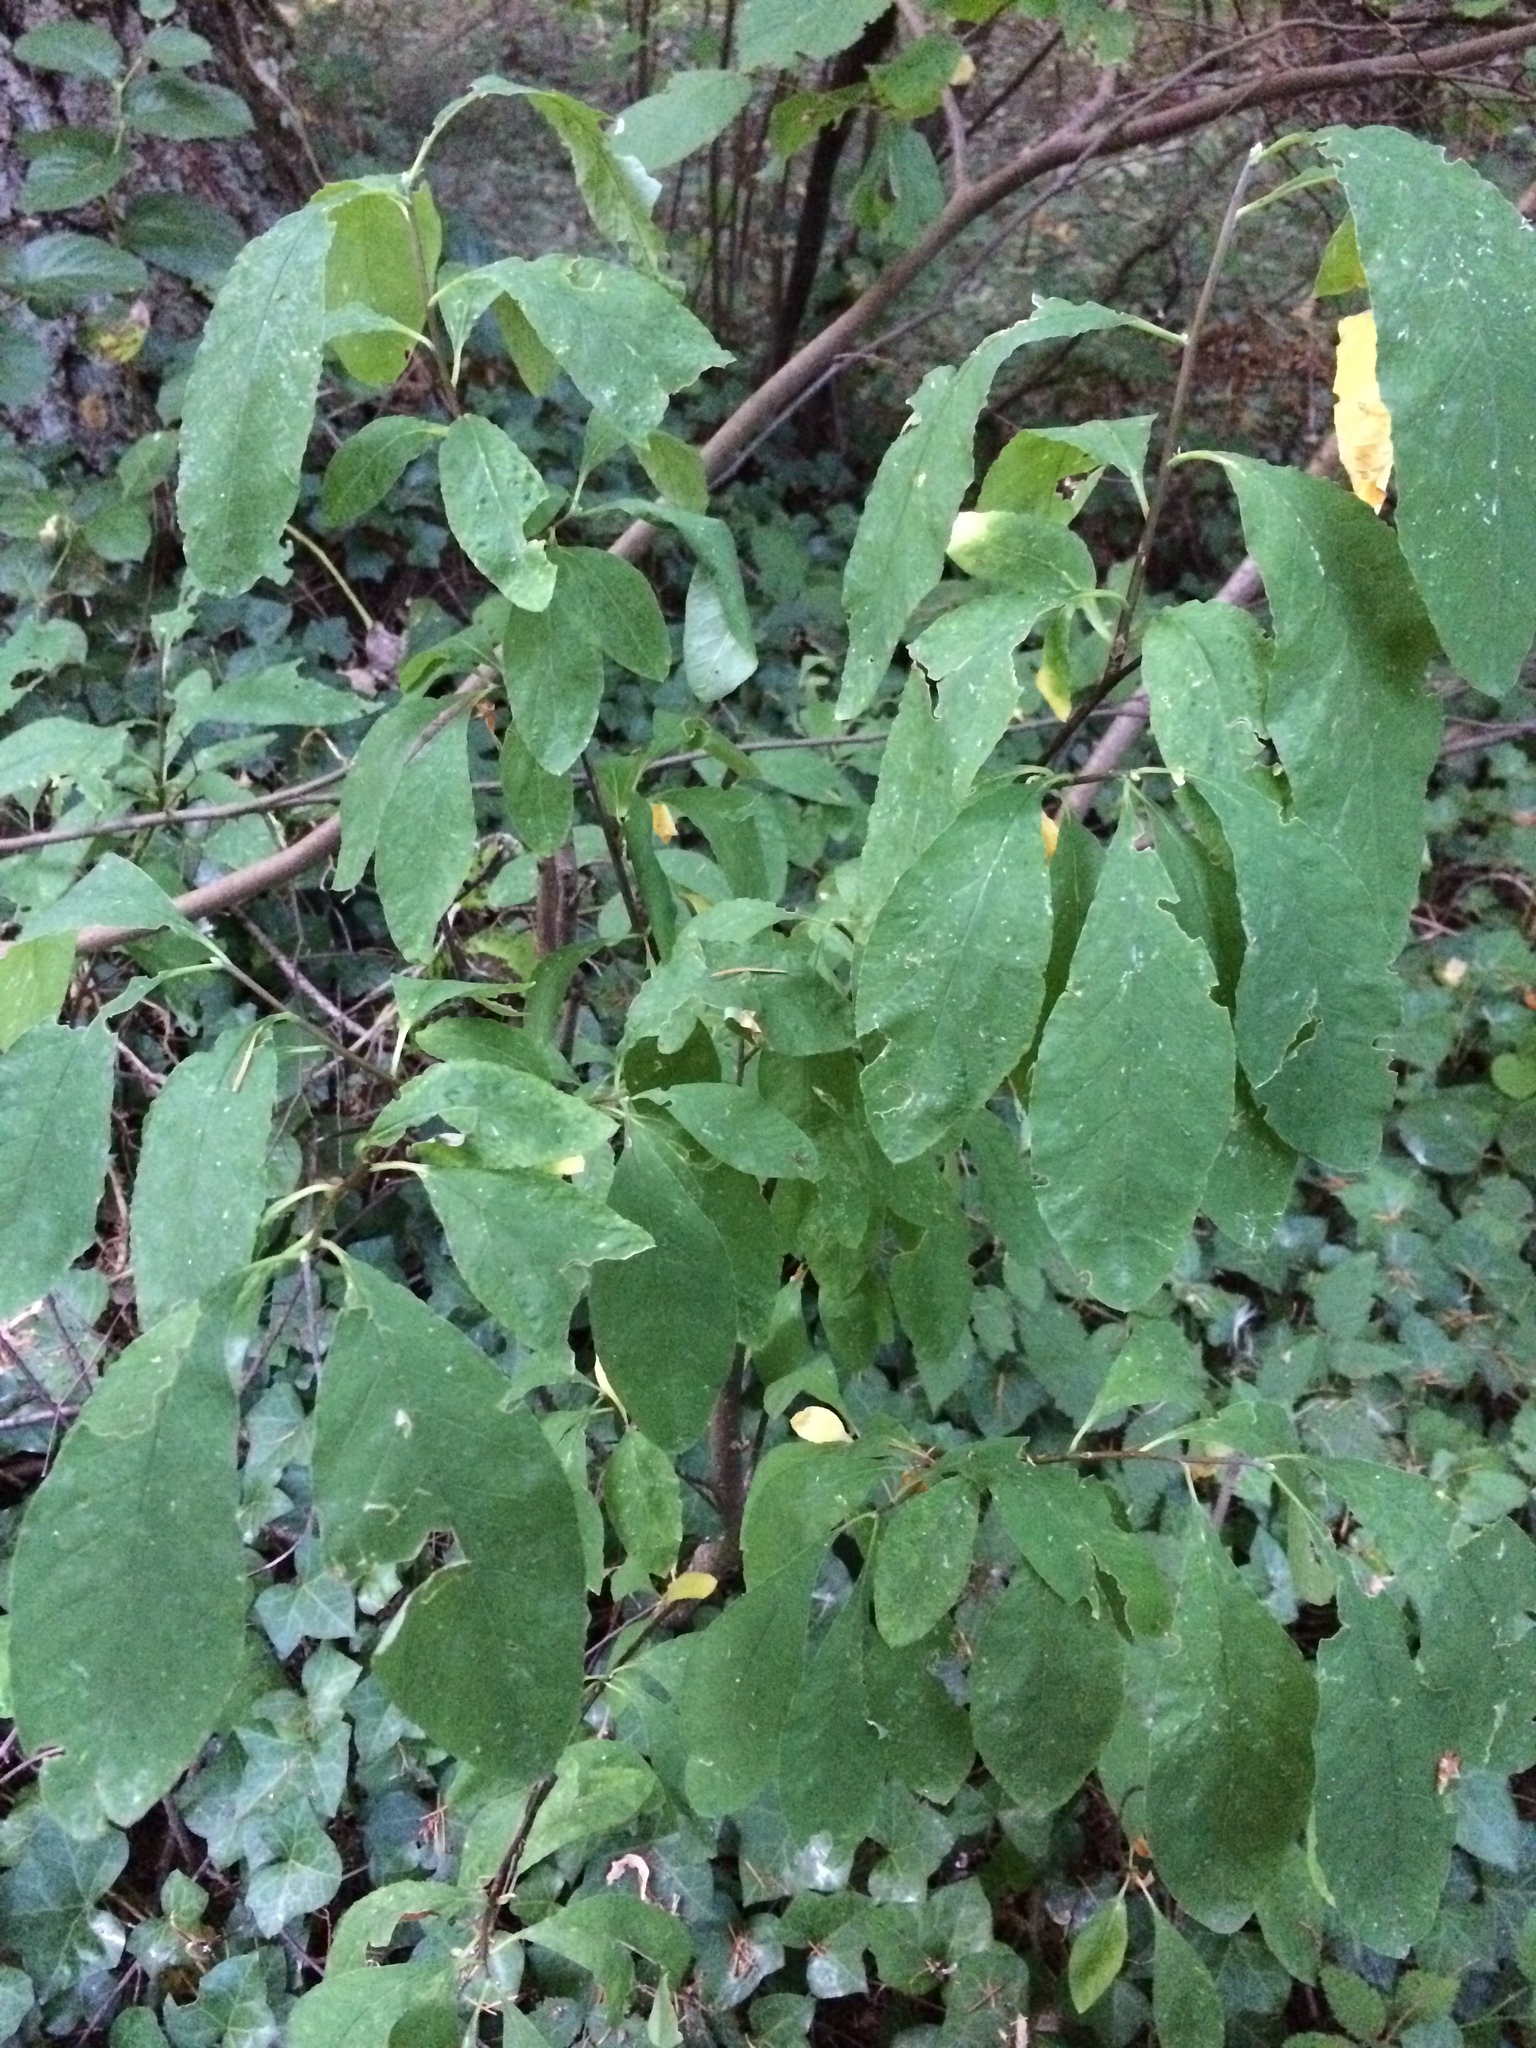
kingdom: Plantae
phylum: Tracheophyta
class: Magnoliopsida
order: Rosales
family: Rosaceae
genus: Oemleria
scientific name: Oemleria cerasiformis
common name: Osoberry
